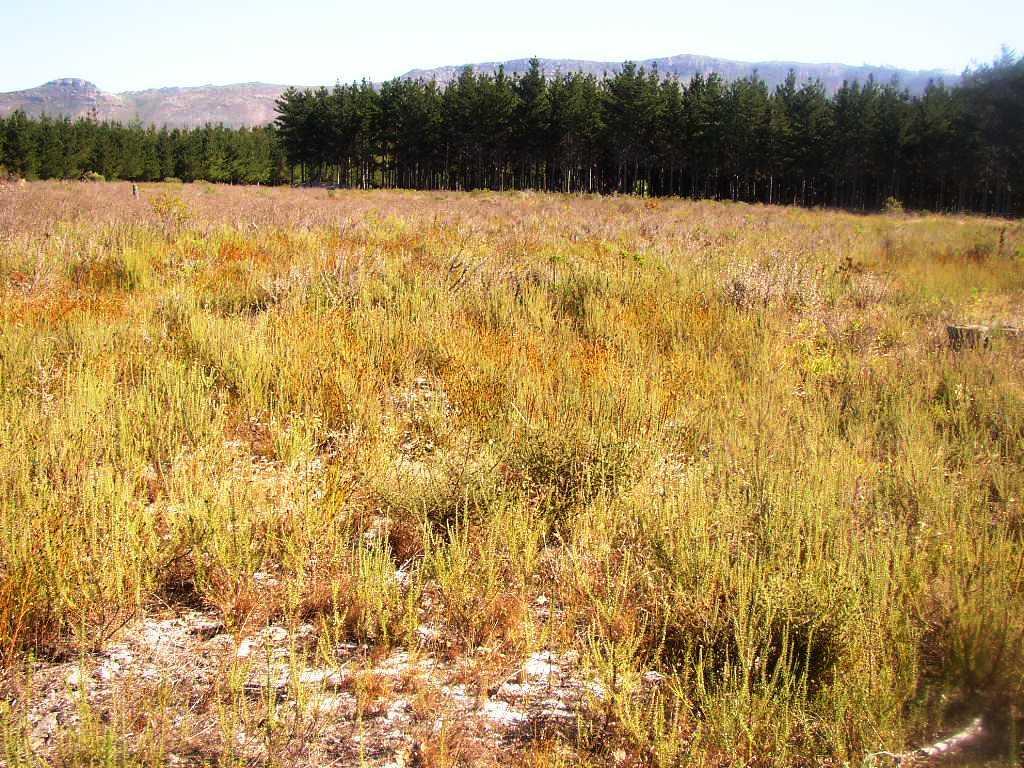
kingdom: Plantae
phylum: Tracheophyta
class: Magnoliopsida
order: Santalales
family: Thesiaceae
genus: Thesium
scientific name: Thesium capitatum
